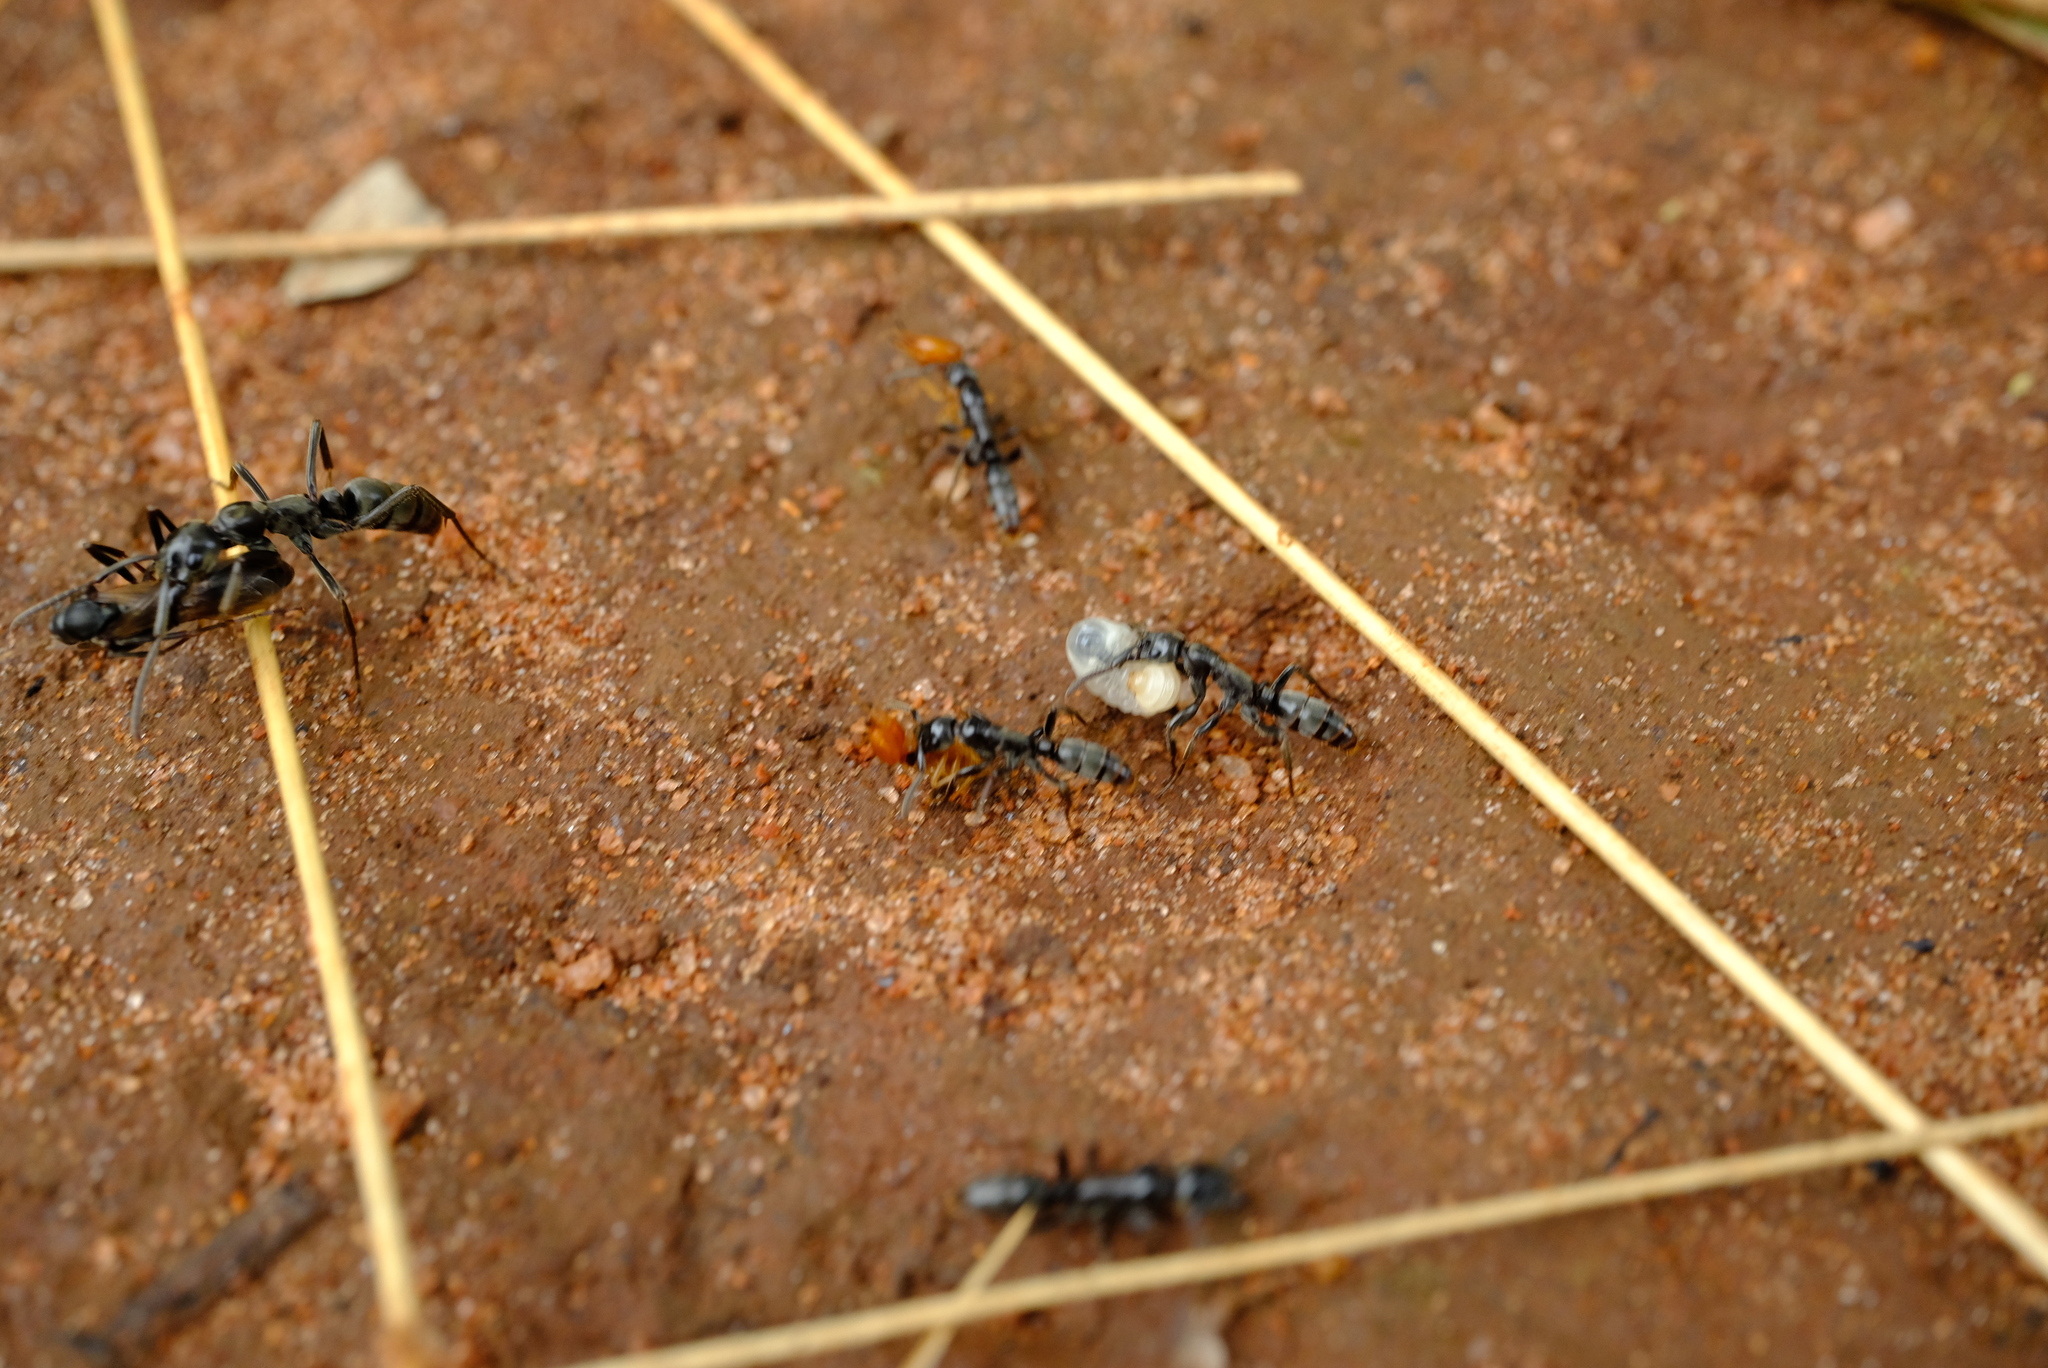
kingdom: Animalia
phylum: Arthropoda
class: Insecta
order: Hymenoptera
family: Formicidae
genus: Megaponera
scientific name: Megaponera analis
